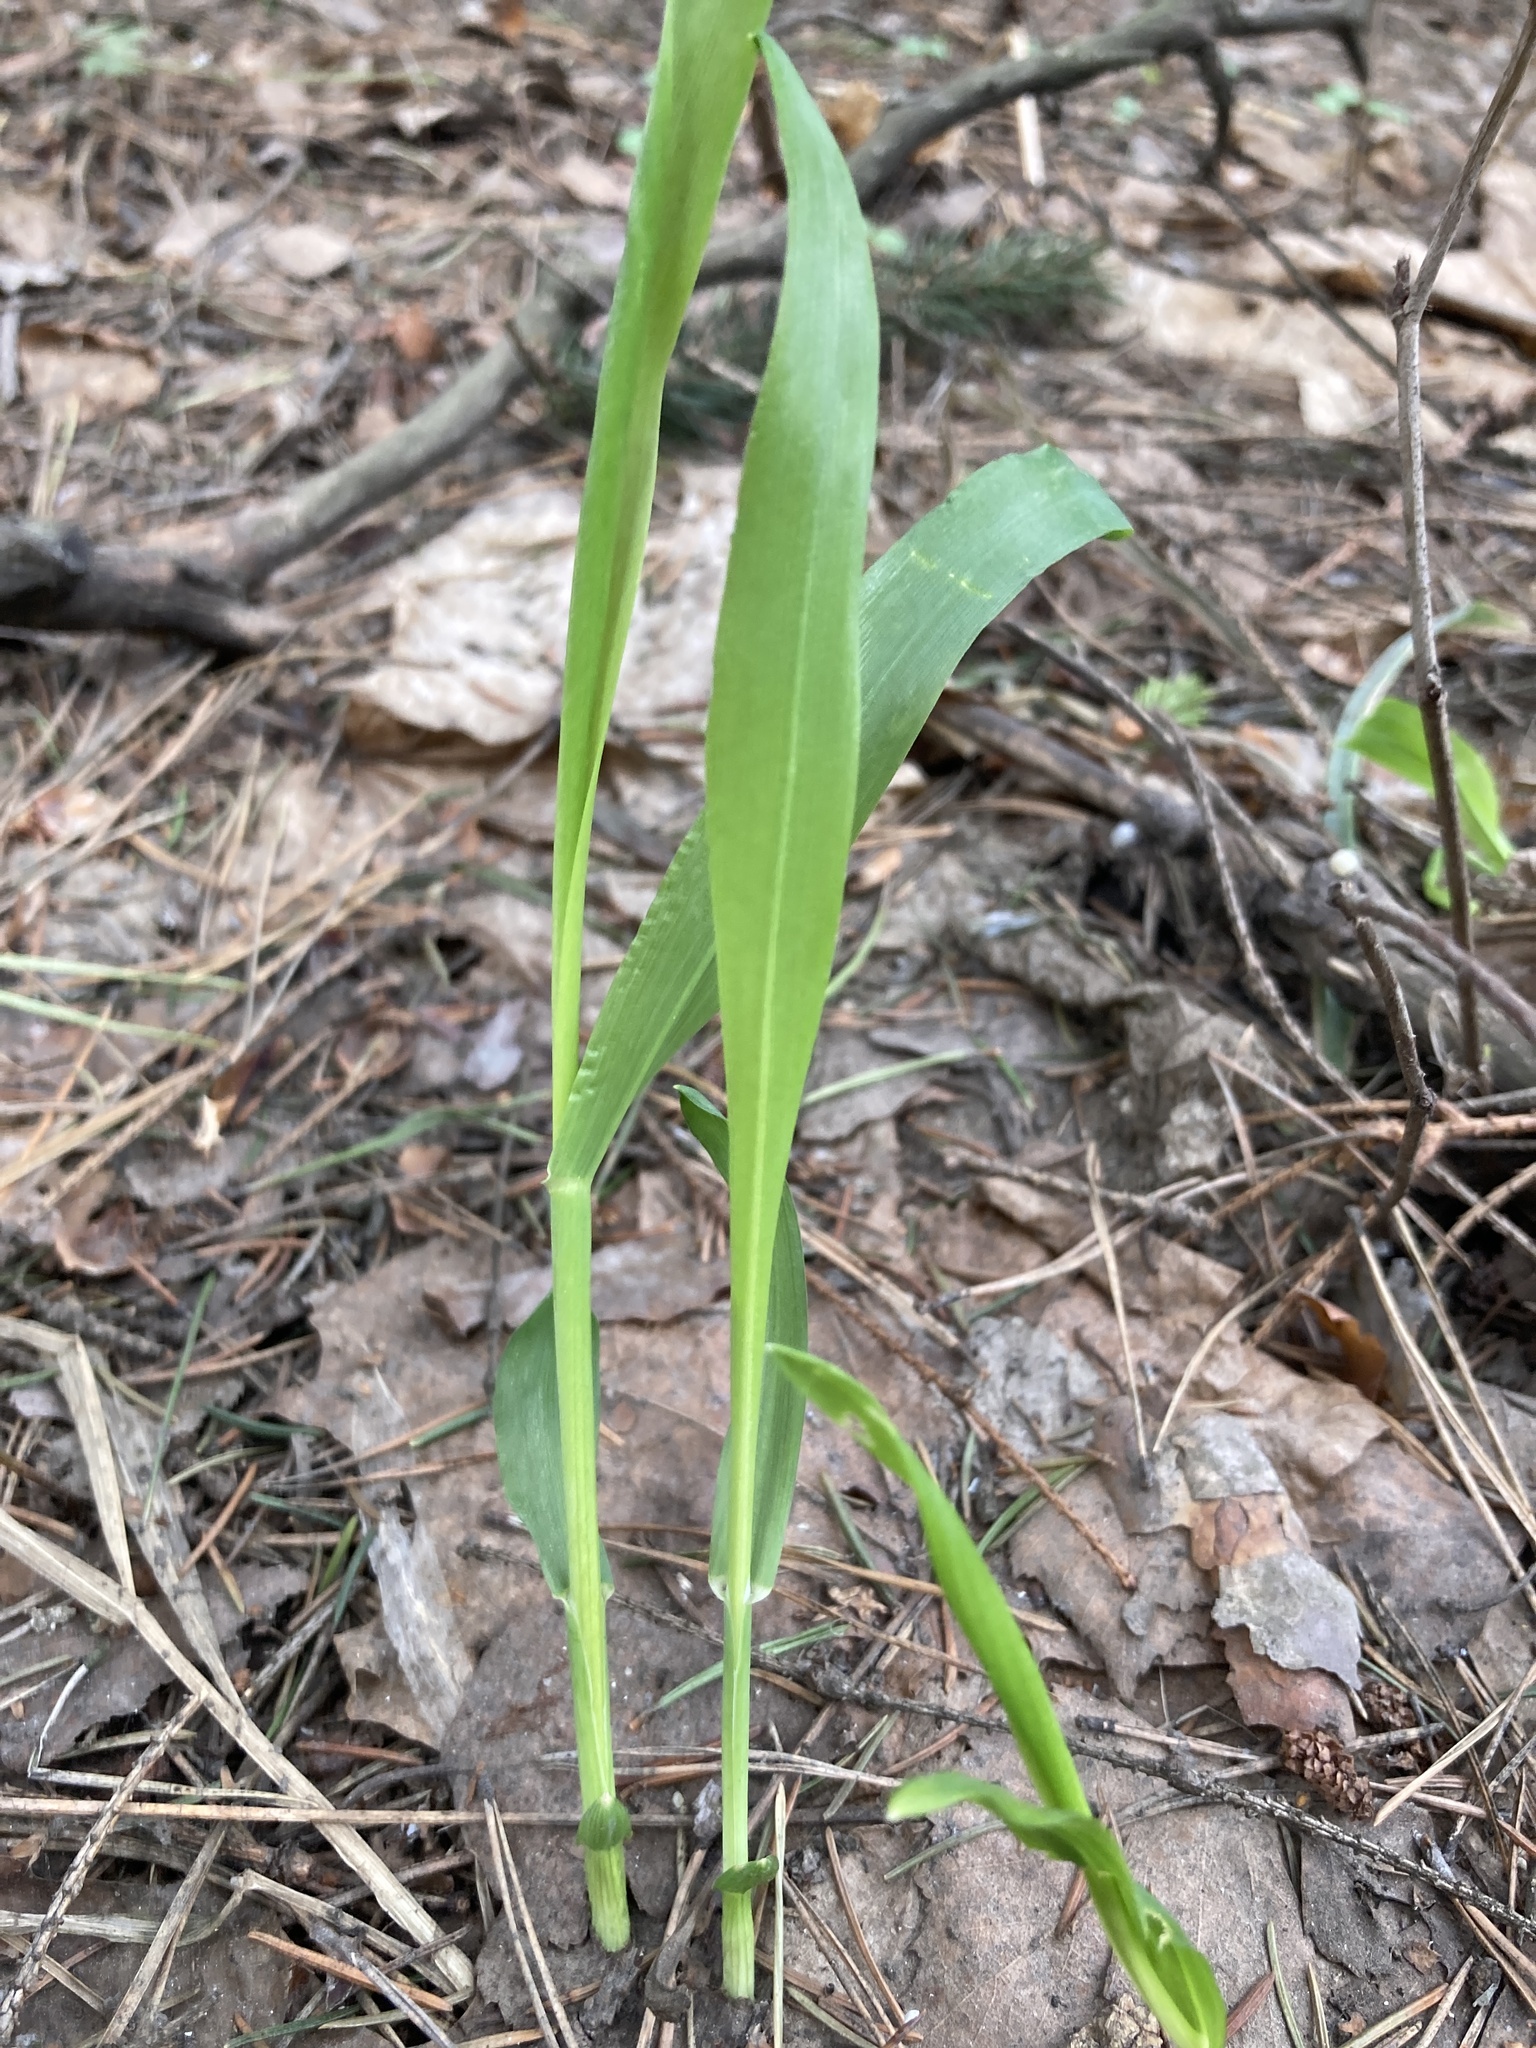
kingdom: Plantae
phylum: Tracheophyta
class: Liliopsida
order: Poales
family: Poaceae
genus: Milium
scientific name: Milium effusum
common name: Wood millet
